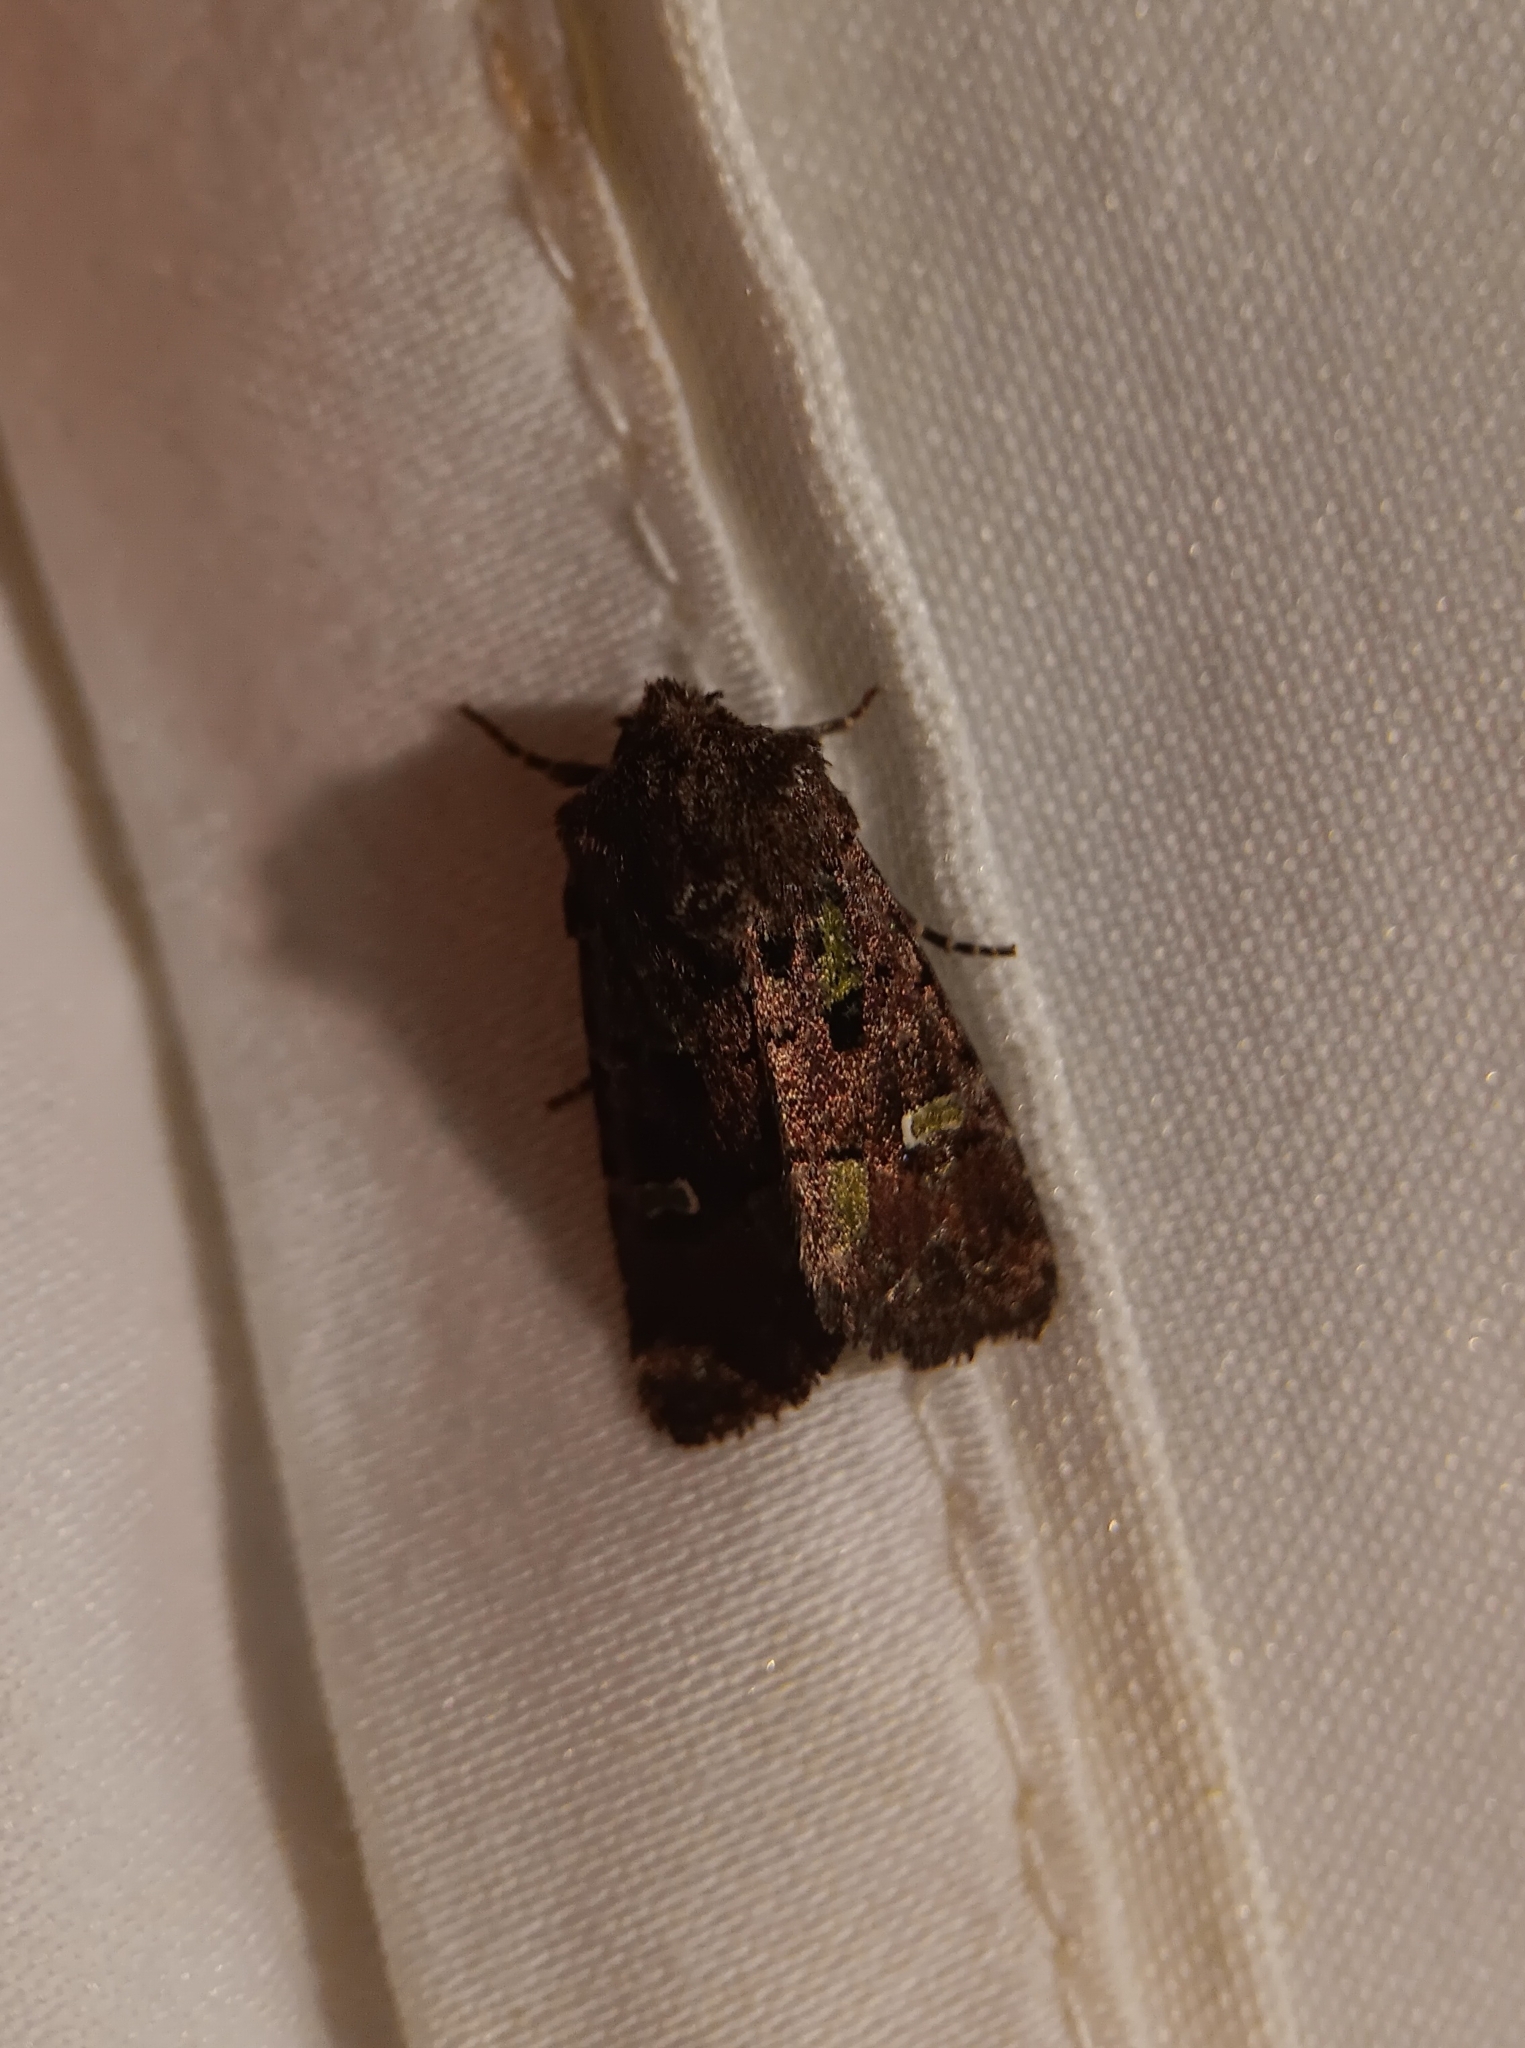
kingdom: Animalia
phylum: Arthropoda
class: Insecta
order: Lepidoptera
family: Noctuidae
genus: Lacinipolia
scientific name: Lacinipolia renigera
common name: Kidney-spotted minor
